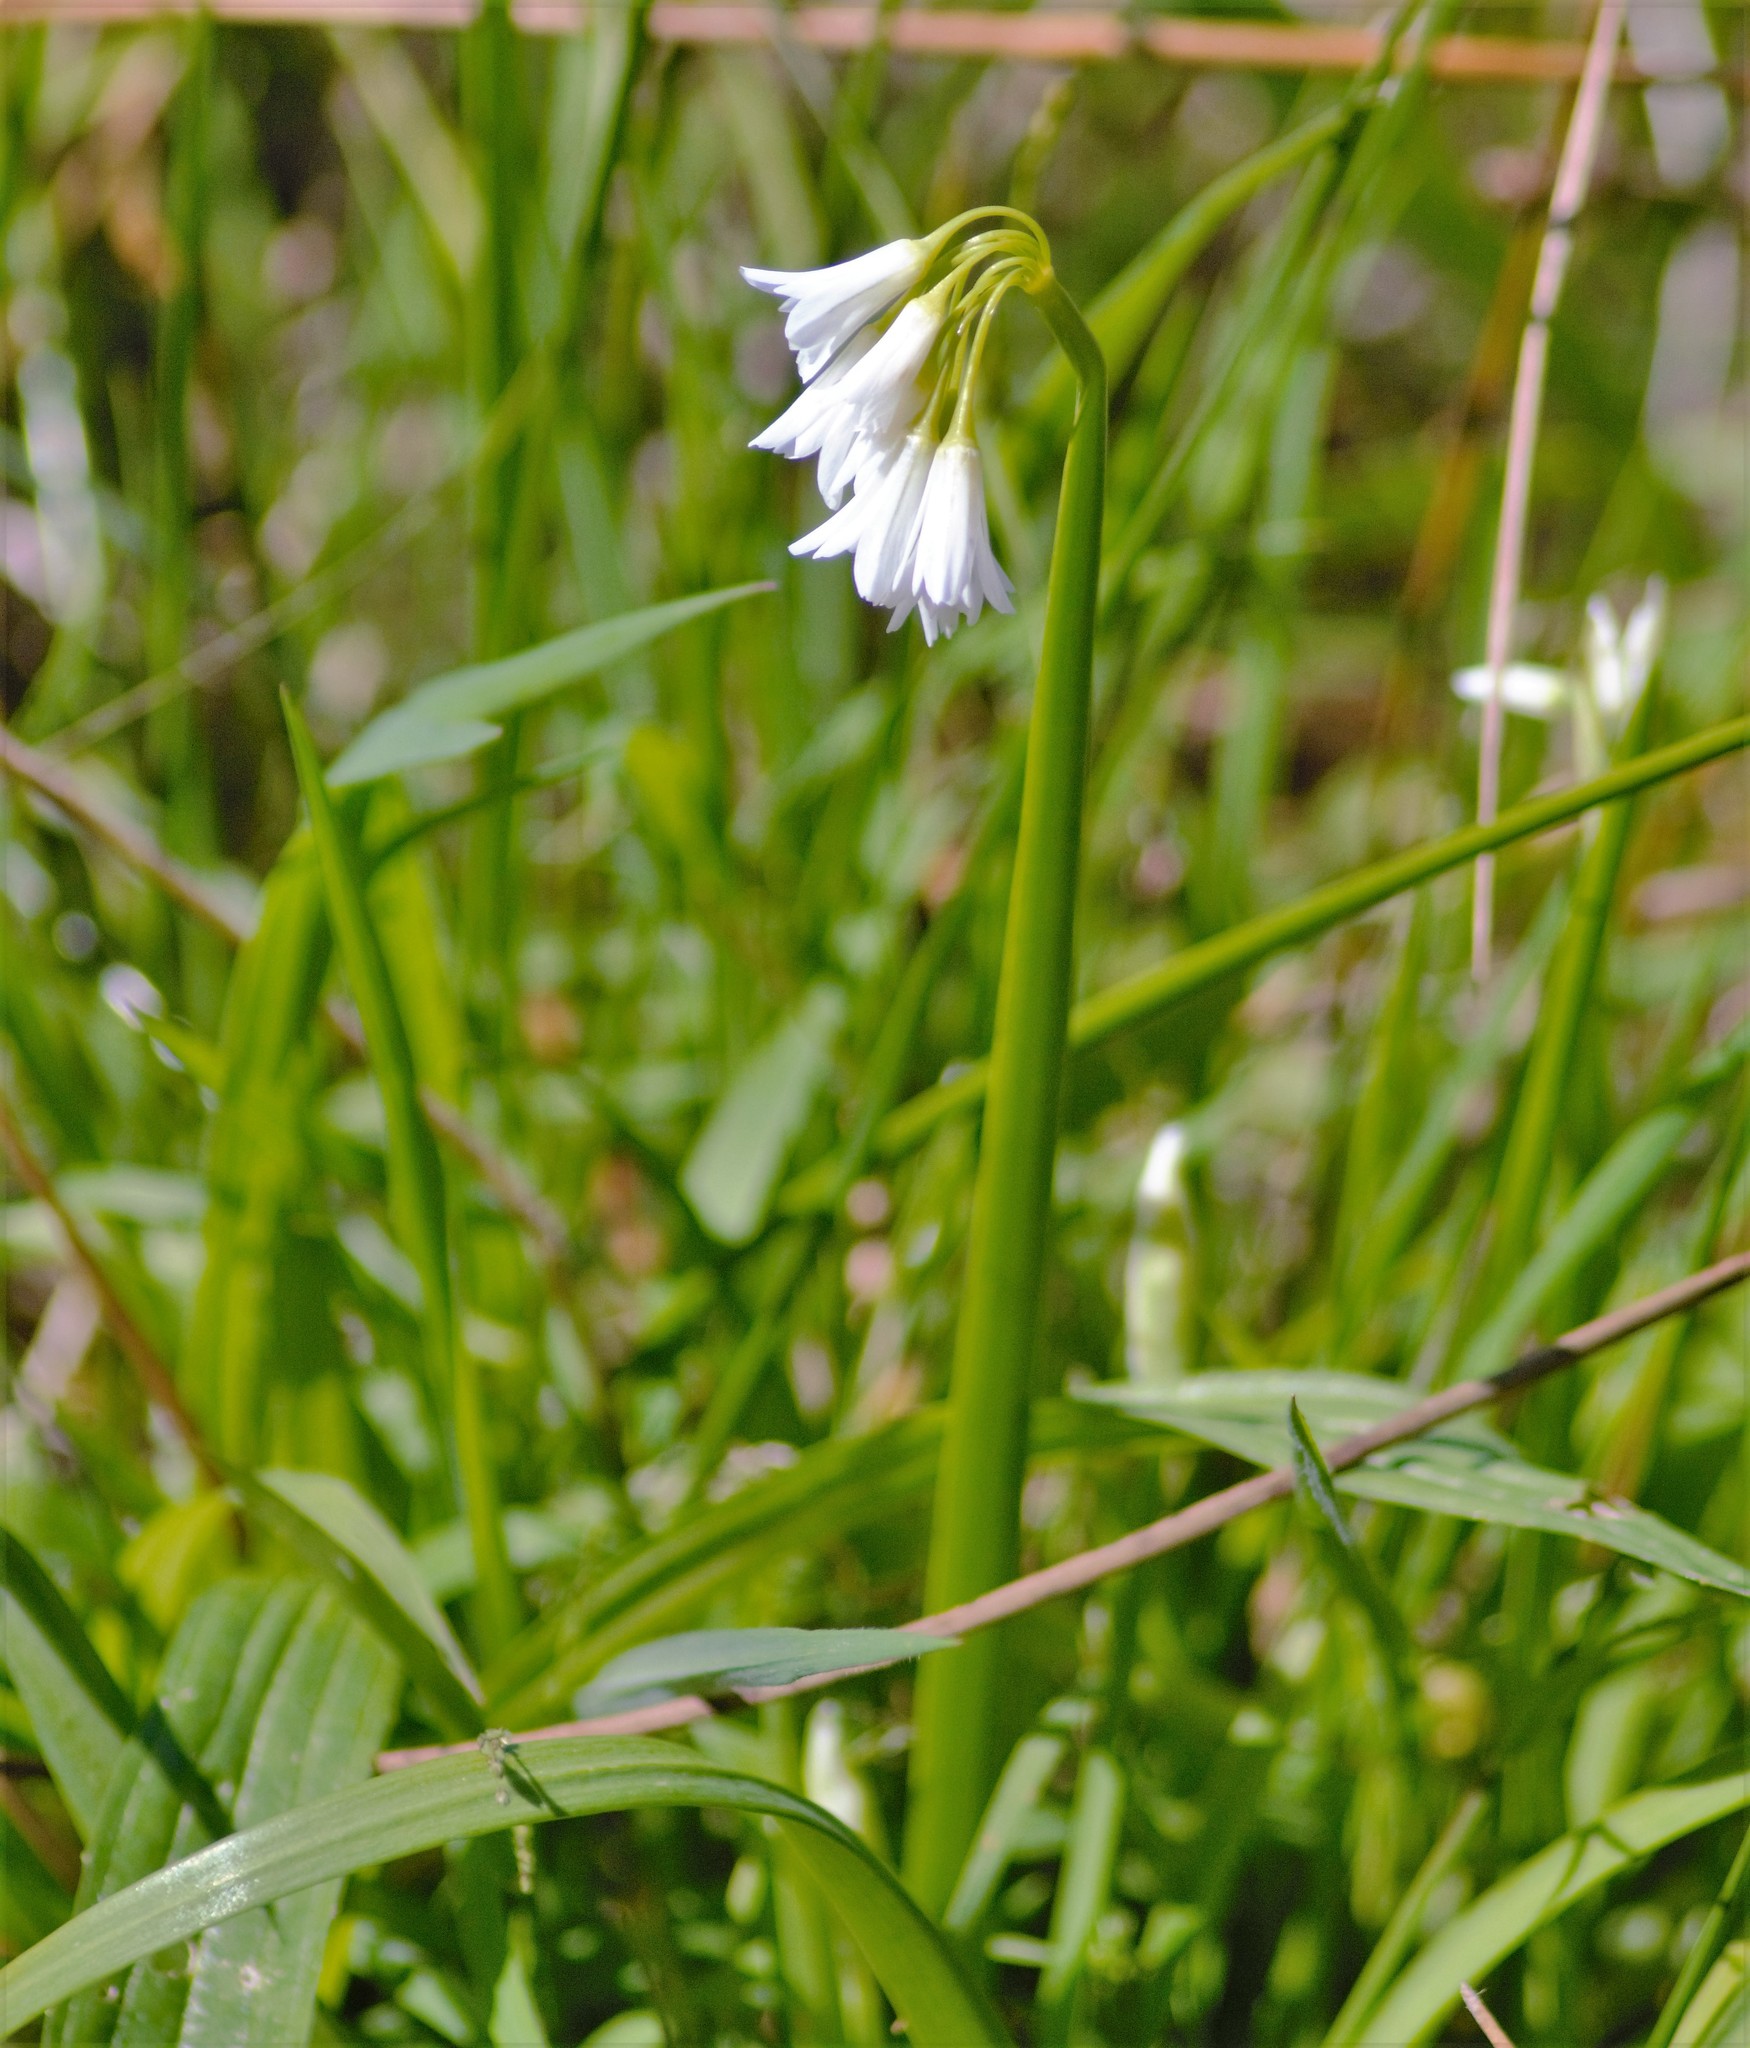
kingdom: Plantae
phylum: Tracheophyta
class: Liliopsida
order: Asparagales
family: Amaryllidaceae
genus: Allium
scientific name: Allium triquetrum
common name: Three-cornered garlic
